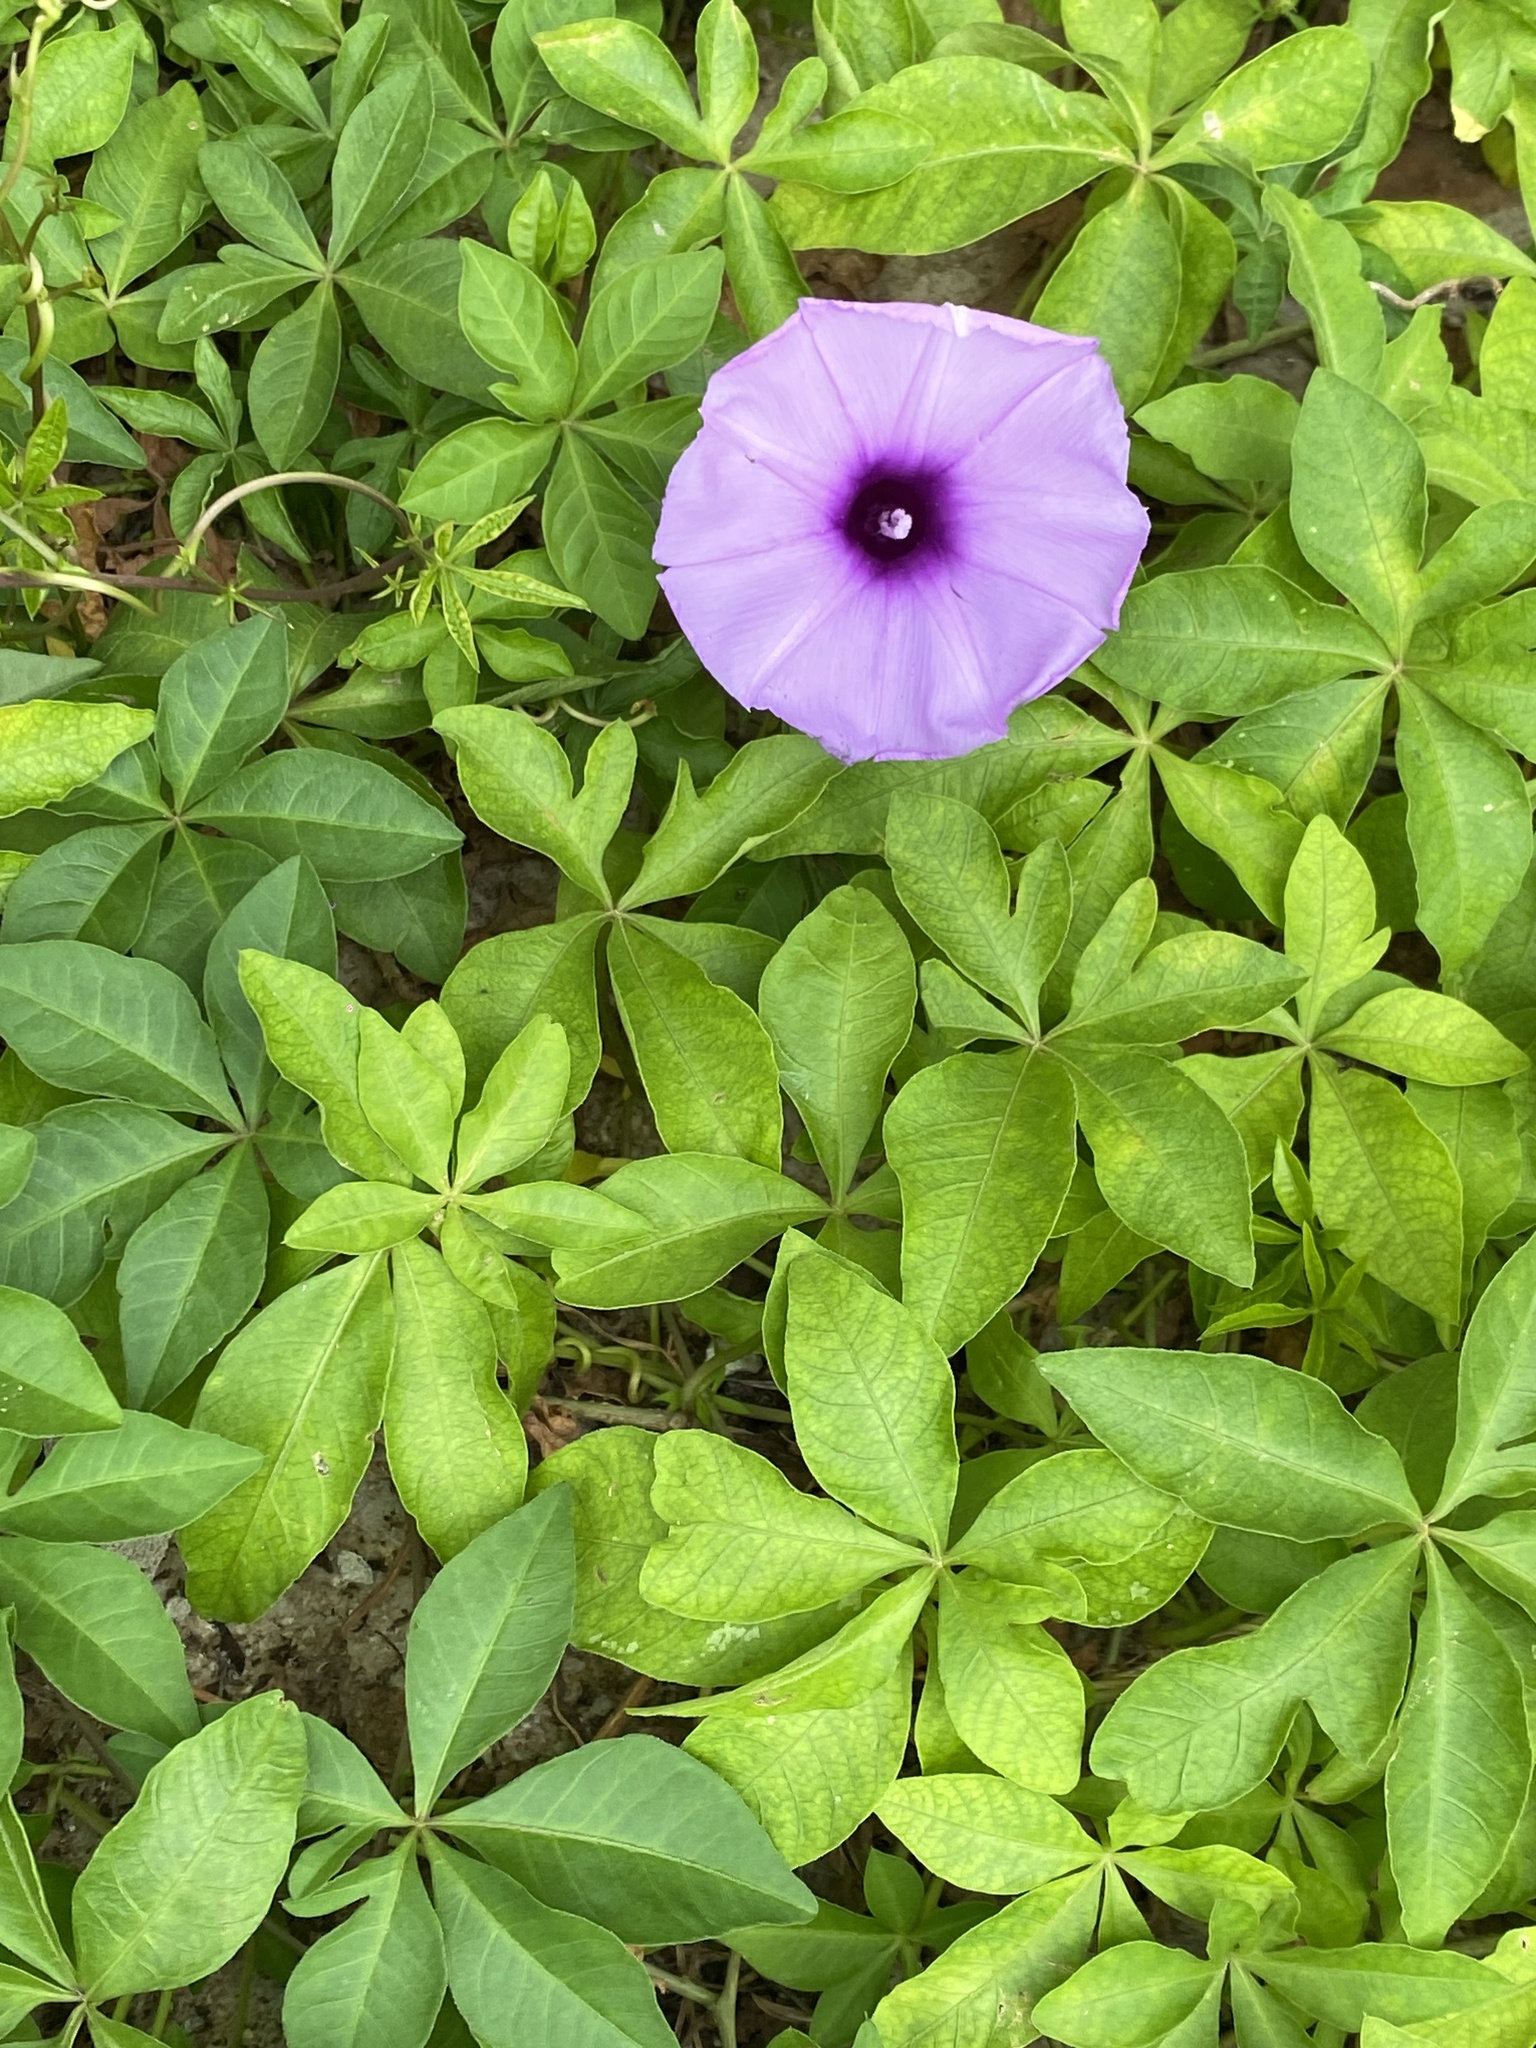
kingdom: Plantae
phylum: Tracheophyta
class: Magnoliopsida
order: Solanales
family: Convolvulaceae
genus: Ipomoea
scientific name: Ipomoea cairica
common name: Mile a minute vine
